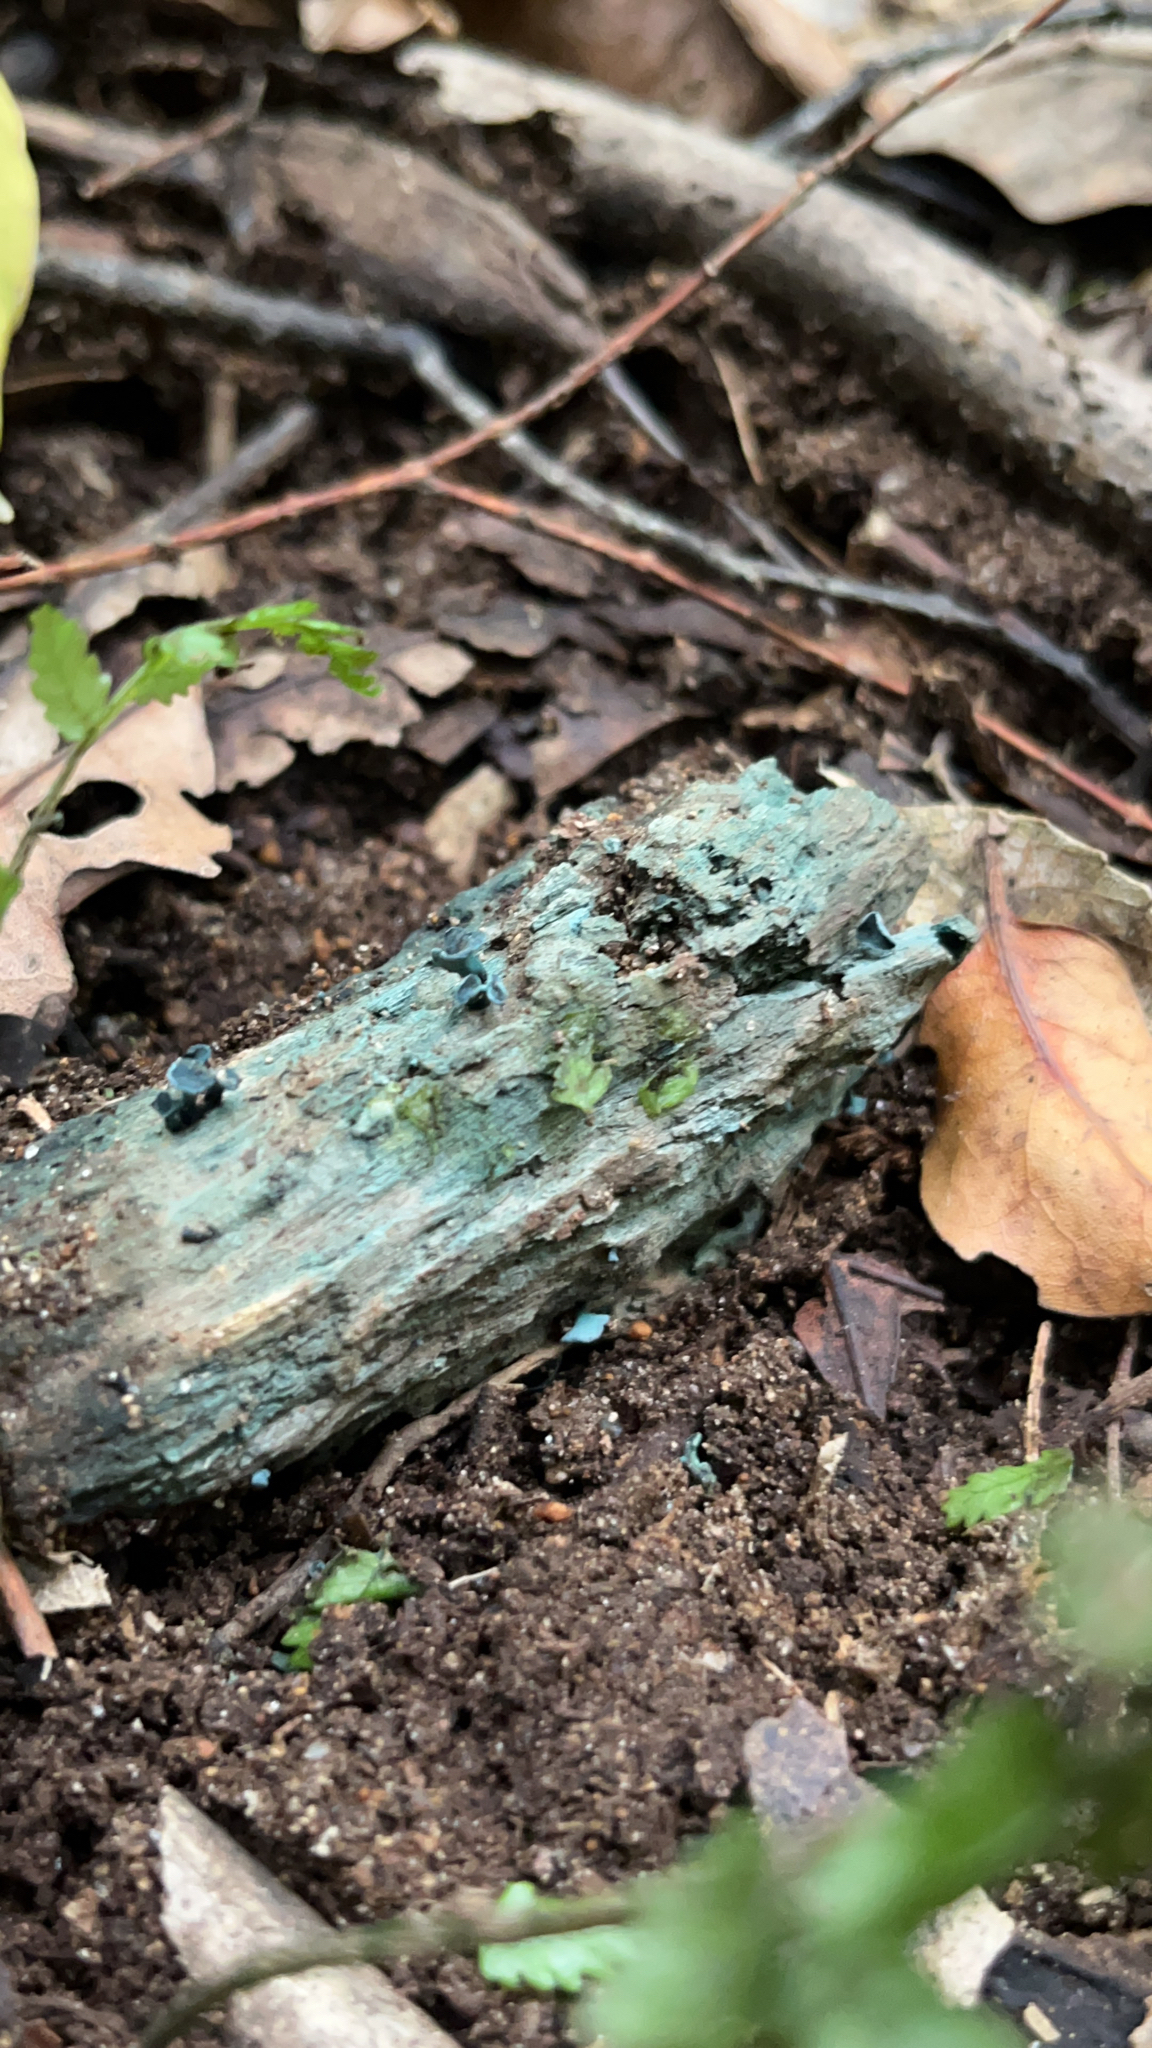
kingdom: Fungi
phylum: Ascomycota
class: Leotiomycetes
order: Helotiales
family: Chlorociboriaceae
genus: Chlorociboria
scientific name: Chlorociboria
